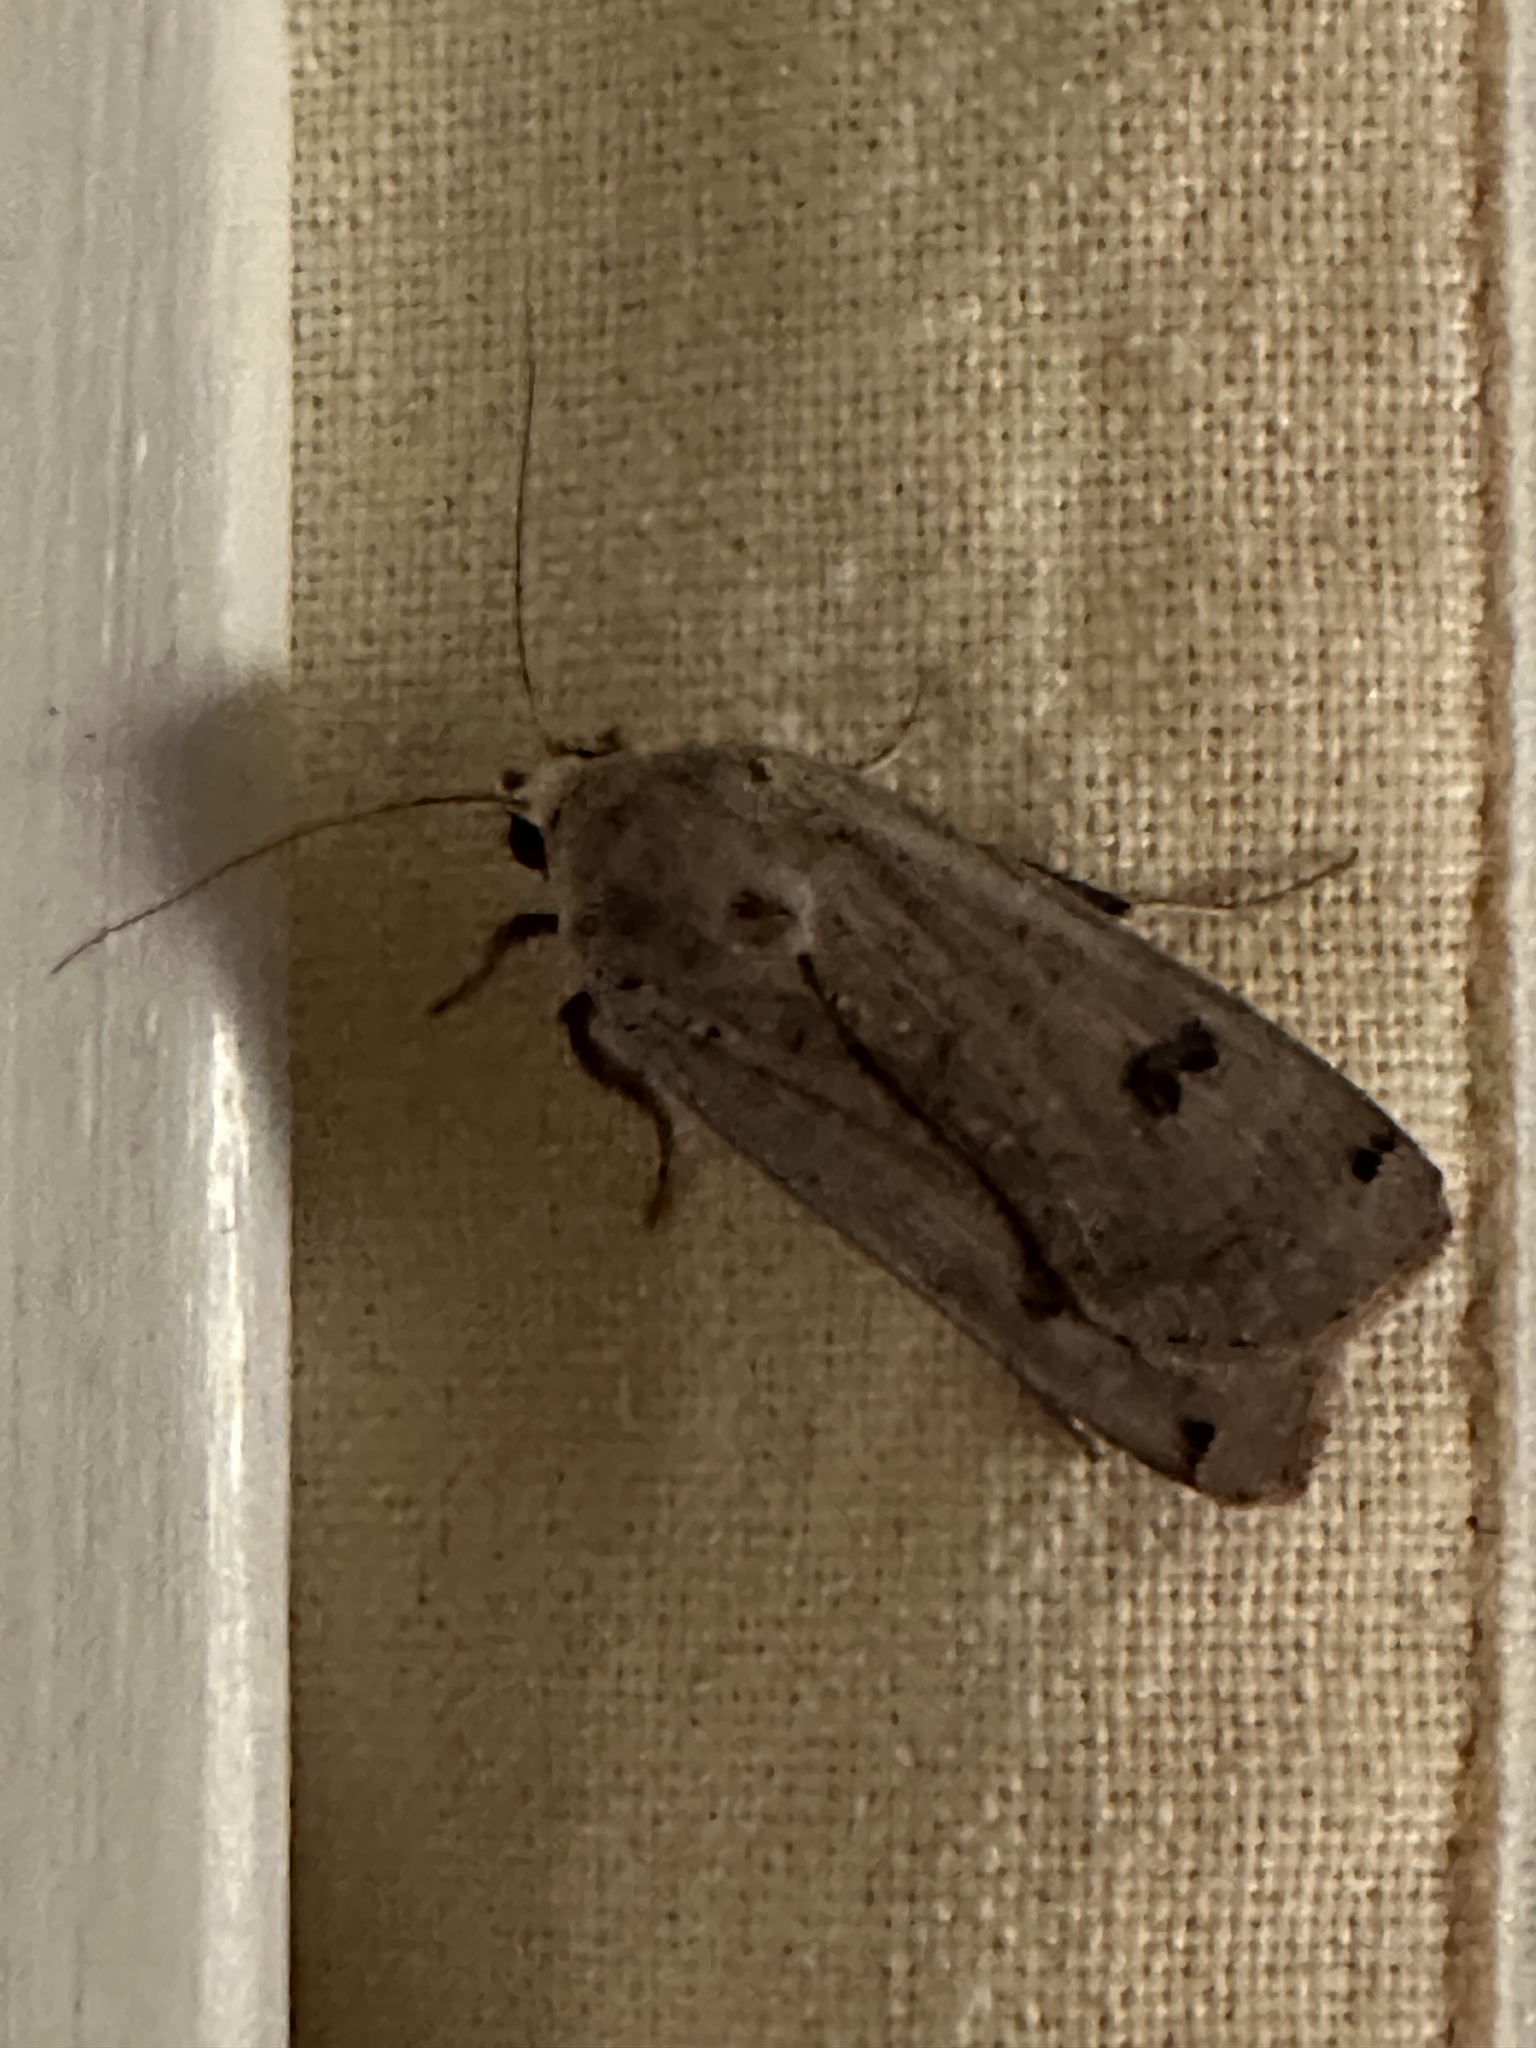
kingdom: Animalia
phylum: Arthropoda
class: Insecta
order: Lepidoptera
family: Noctuidae
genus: Noctua
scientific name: Noctua pronuba
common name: Large yellow underwing
